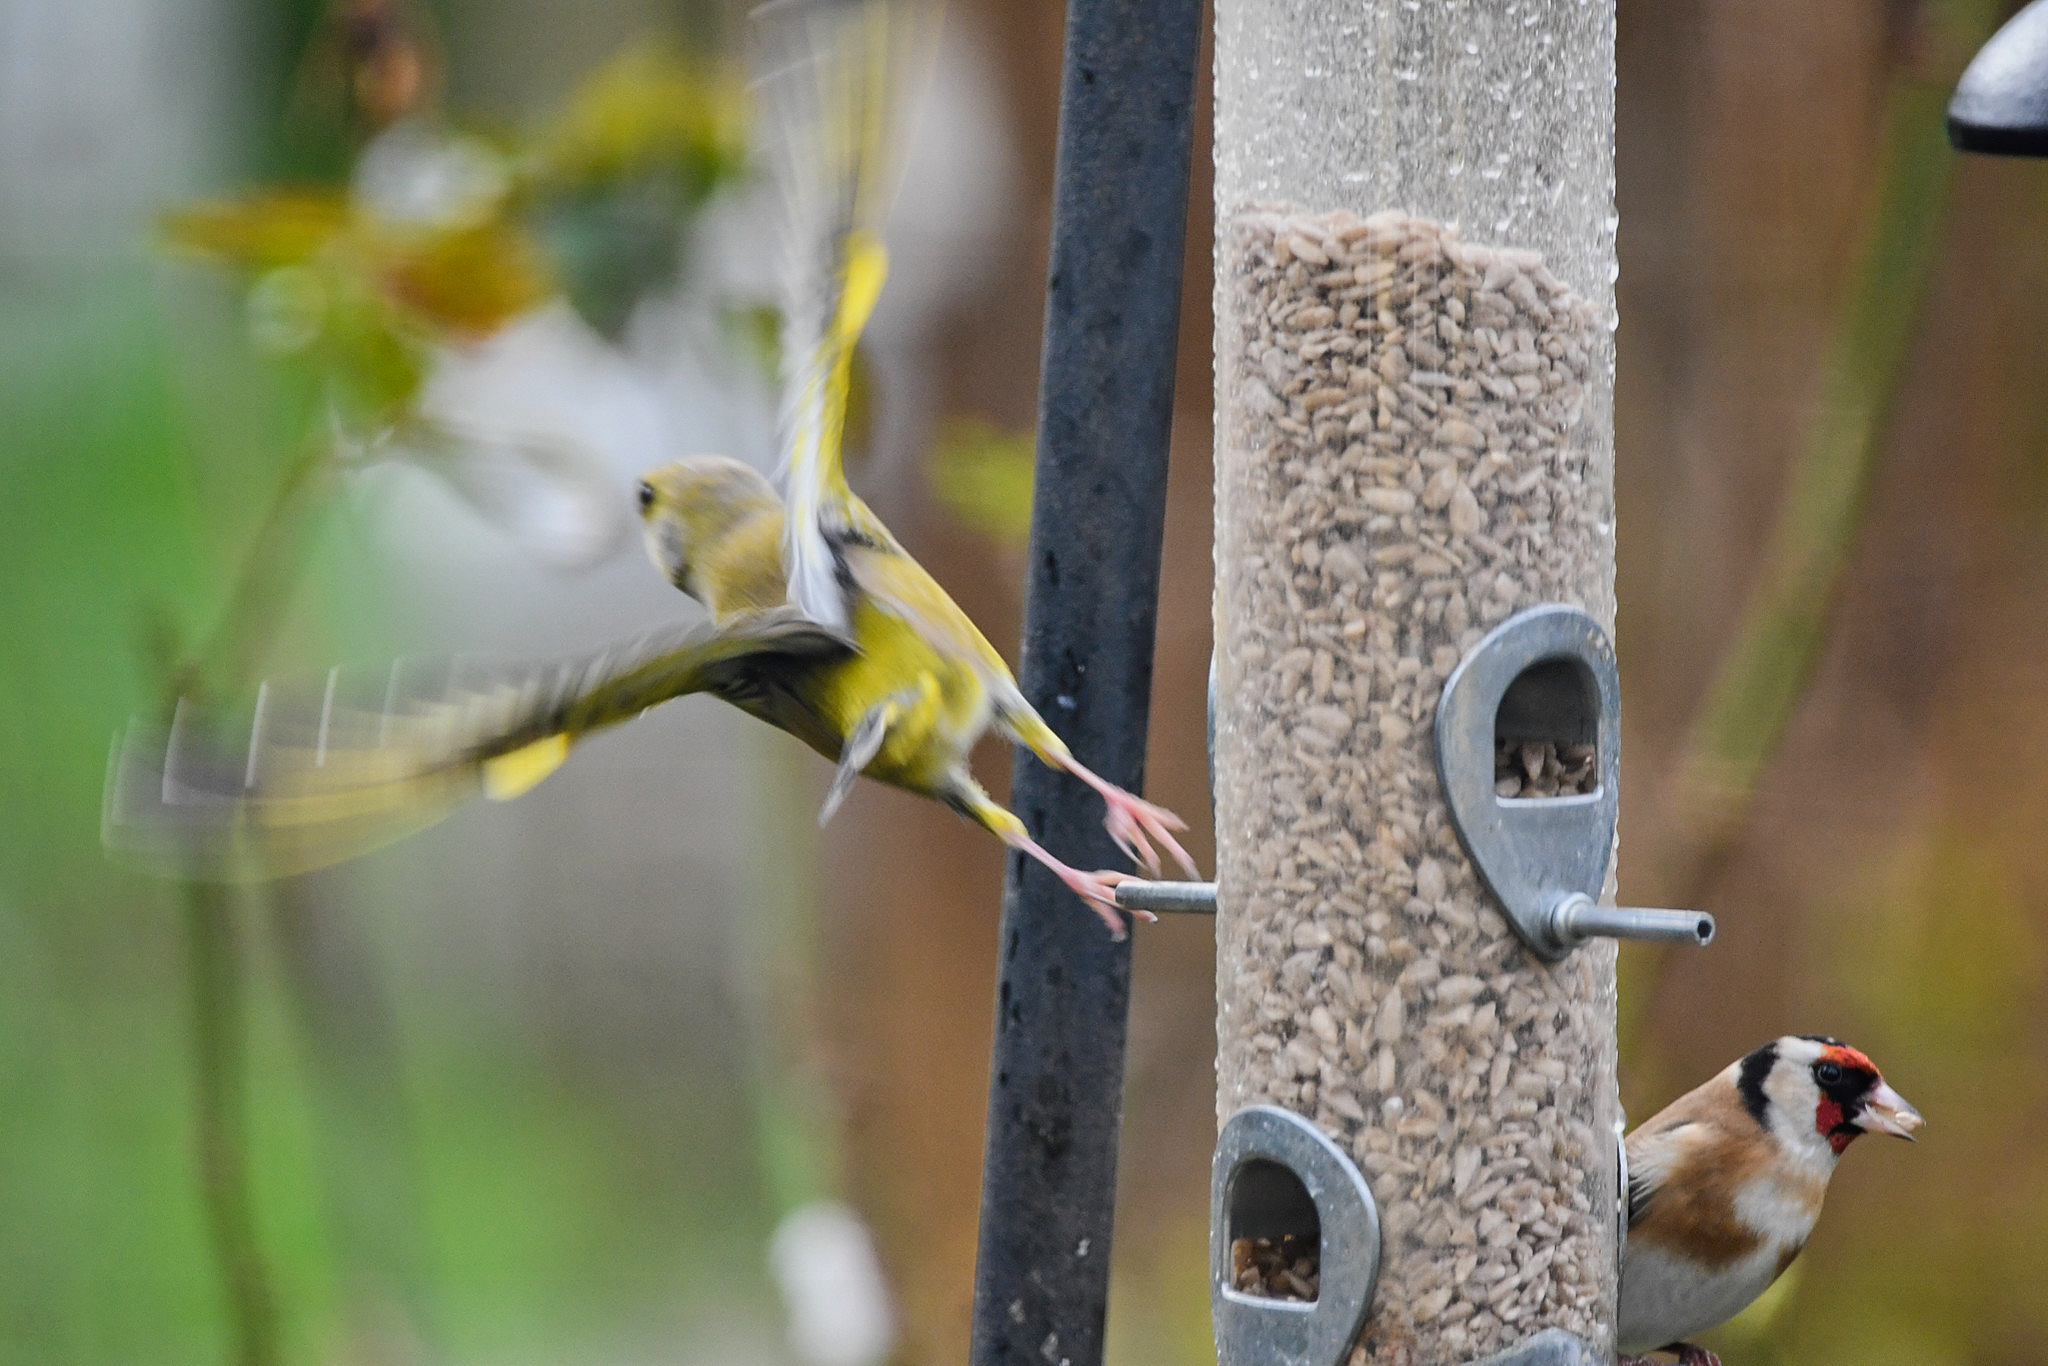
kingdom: Plantae
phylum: Tracheophyta
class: Liliopsida
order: Poales
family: Poaceae
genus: Chloris
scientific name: Chloris chloris
